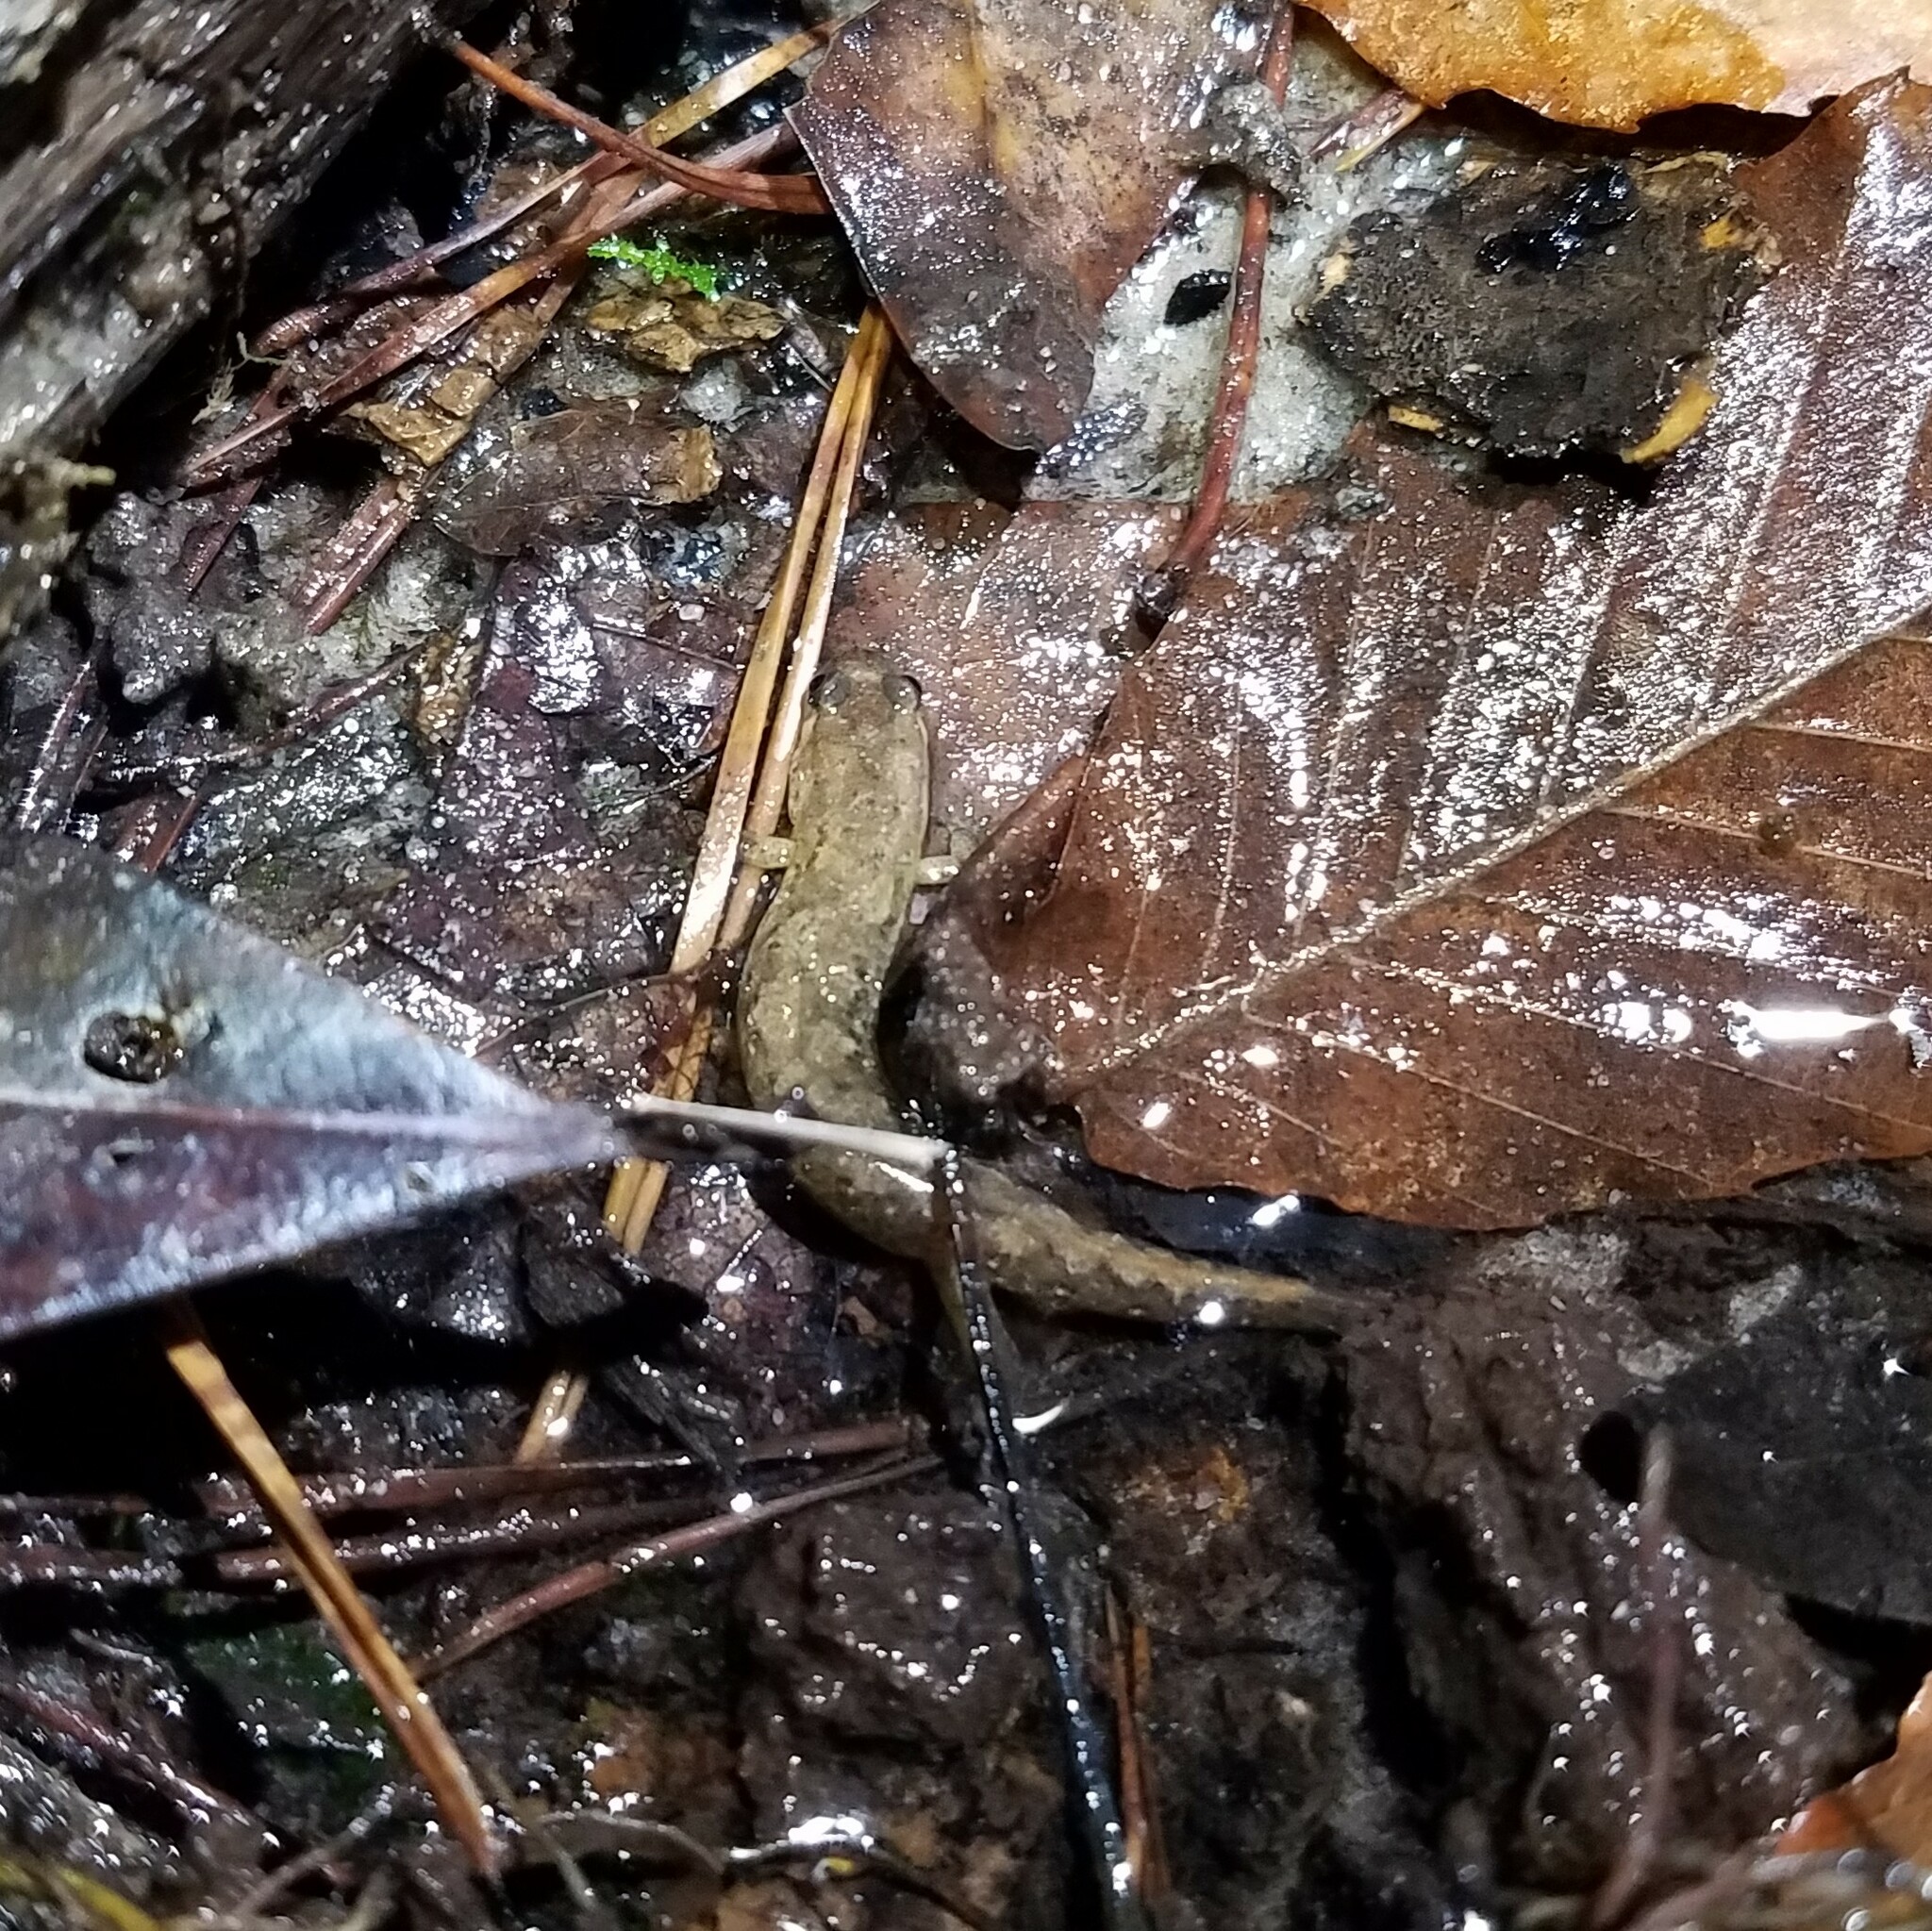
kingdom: Animalia
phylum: Chordata
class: Amphibia
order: Caudata
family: Plethodontidae
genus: Desmognathus
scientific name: Desmognathus apalachicolae
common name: Apalachicola dusky salamander
